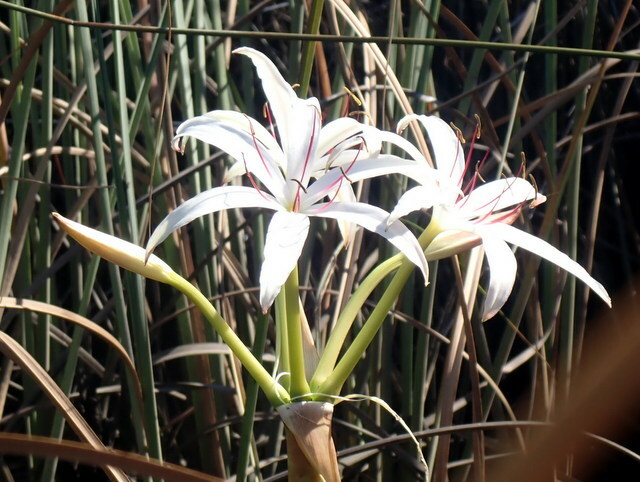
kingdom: Plantae
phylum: Tracheophyta
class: Liliopsida
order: Asparagales
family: Amaryllidaceae
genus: Crinum
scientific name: Crinum americanum
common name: Florida swamp-lily
